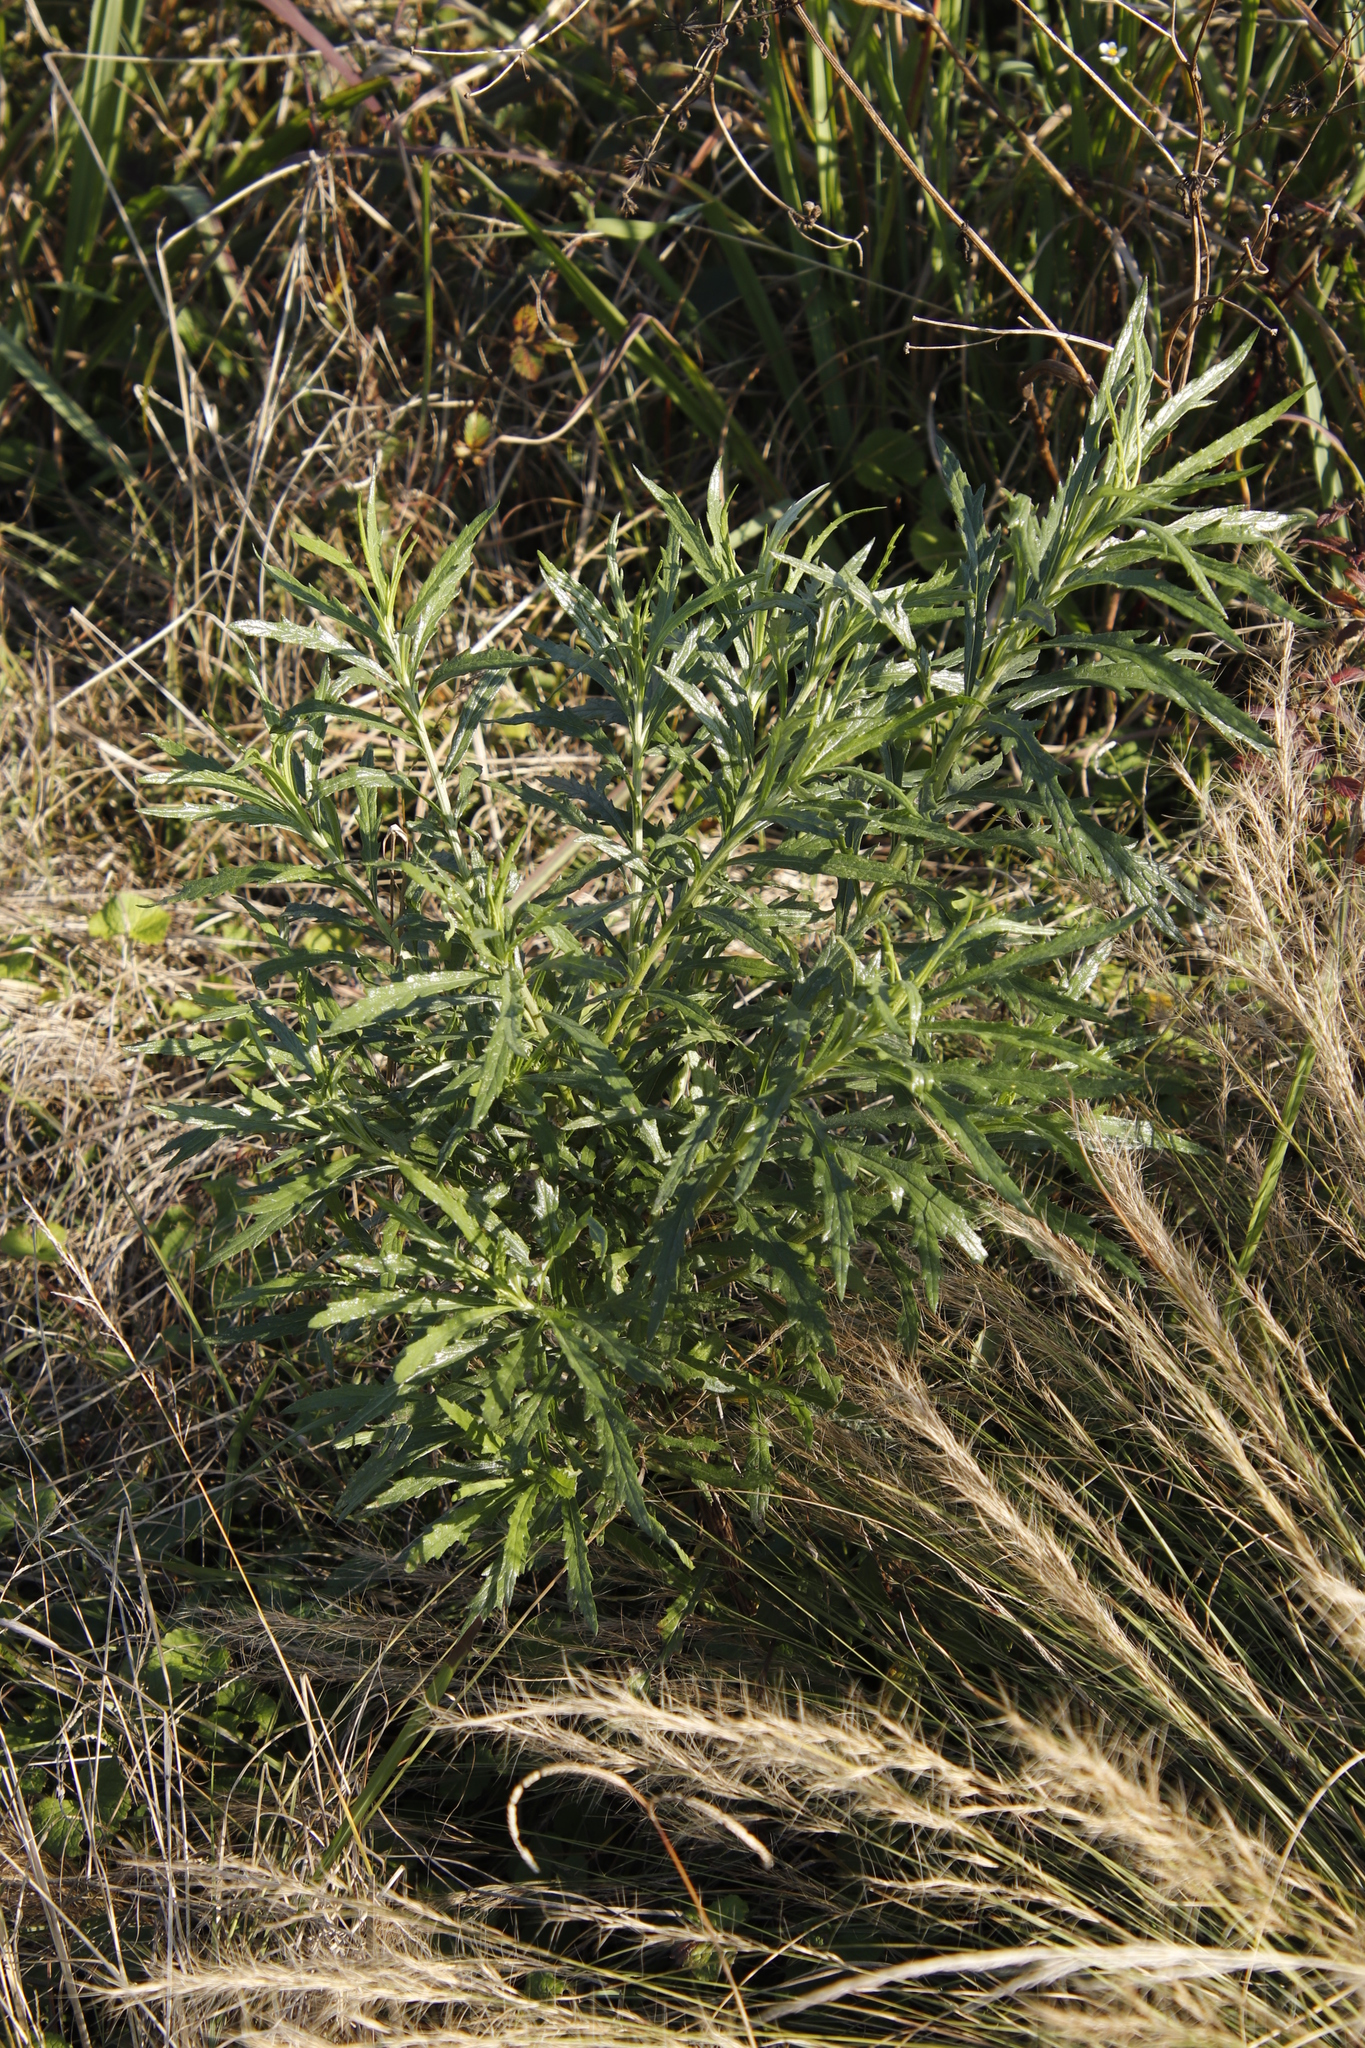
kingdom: Plantae
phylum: Tracheophyta
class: Magnoliopsida
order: Asterales
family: Asteraceae
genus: Senecio
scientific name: Senecio pterophorus
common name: Shoddy ragwort
